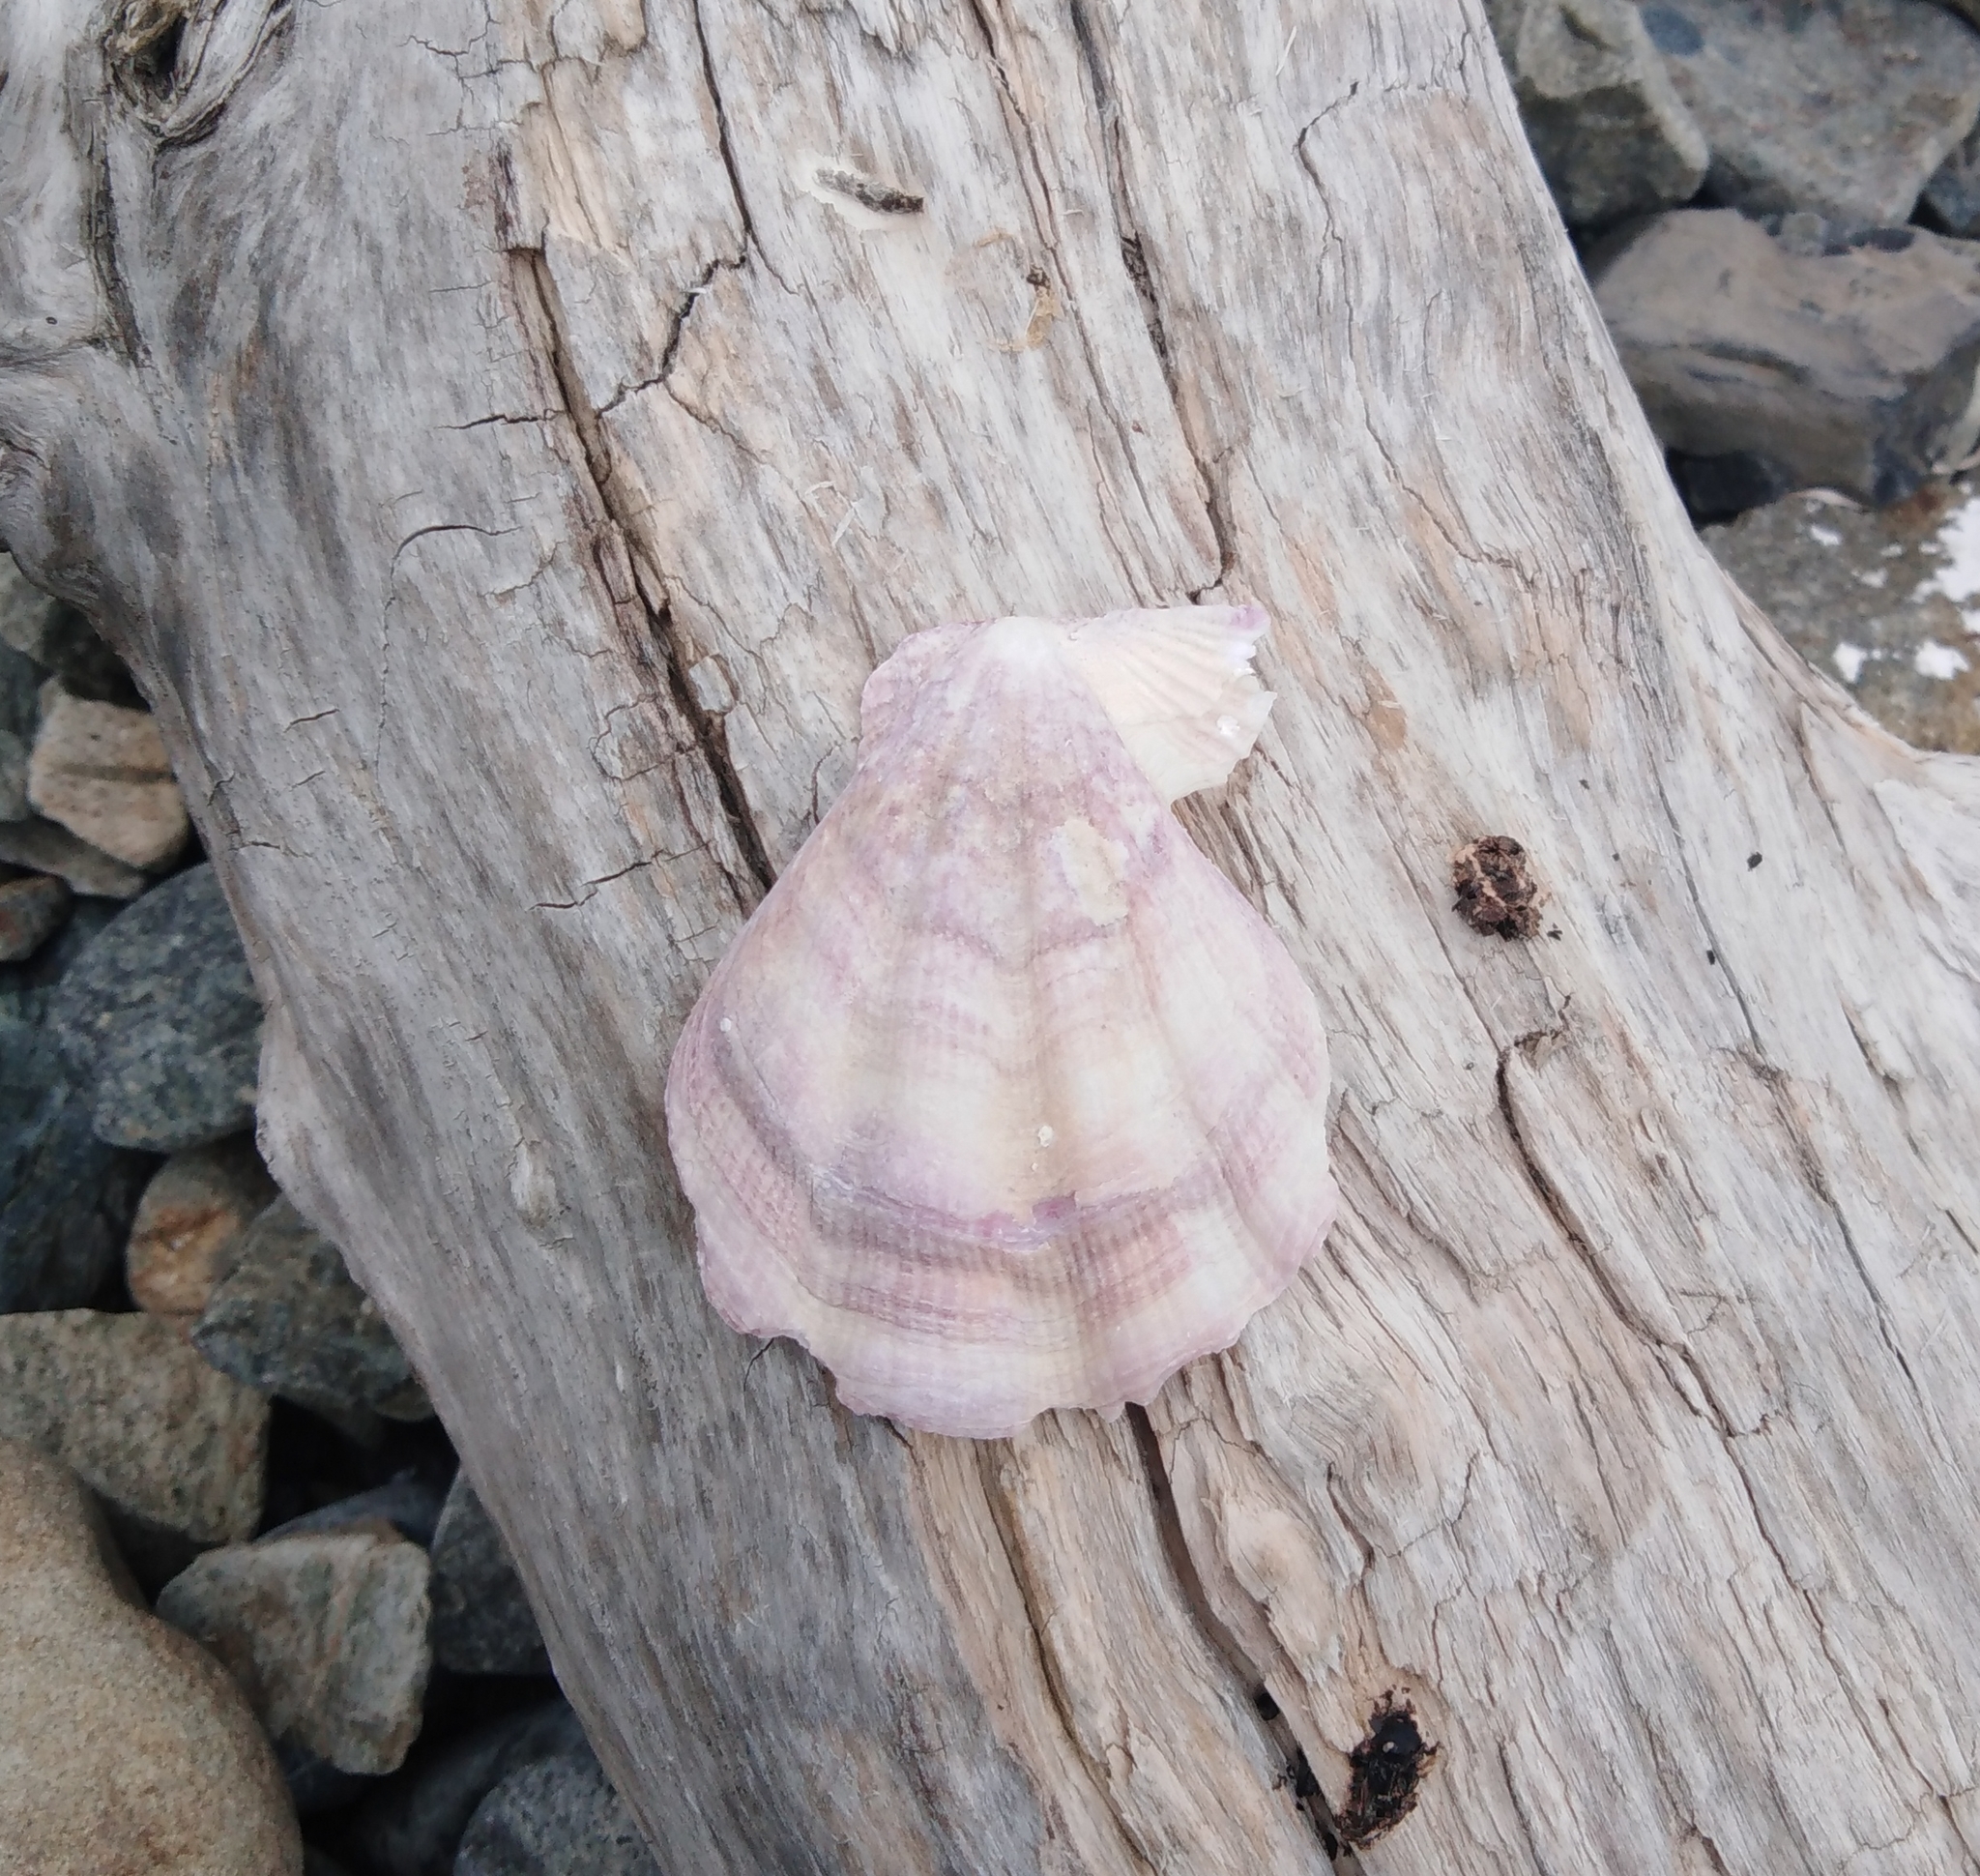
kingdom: Animalia
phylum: Mollusca
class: Bivalvia
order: Pectinida
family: Pectinidae
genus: Swiftopecten
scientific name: Swiftopecten swiftii
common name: Swift's scallop
